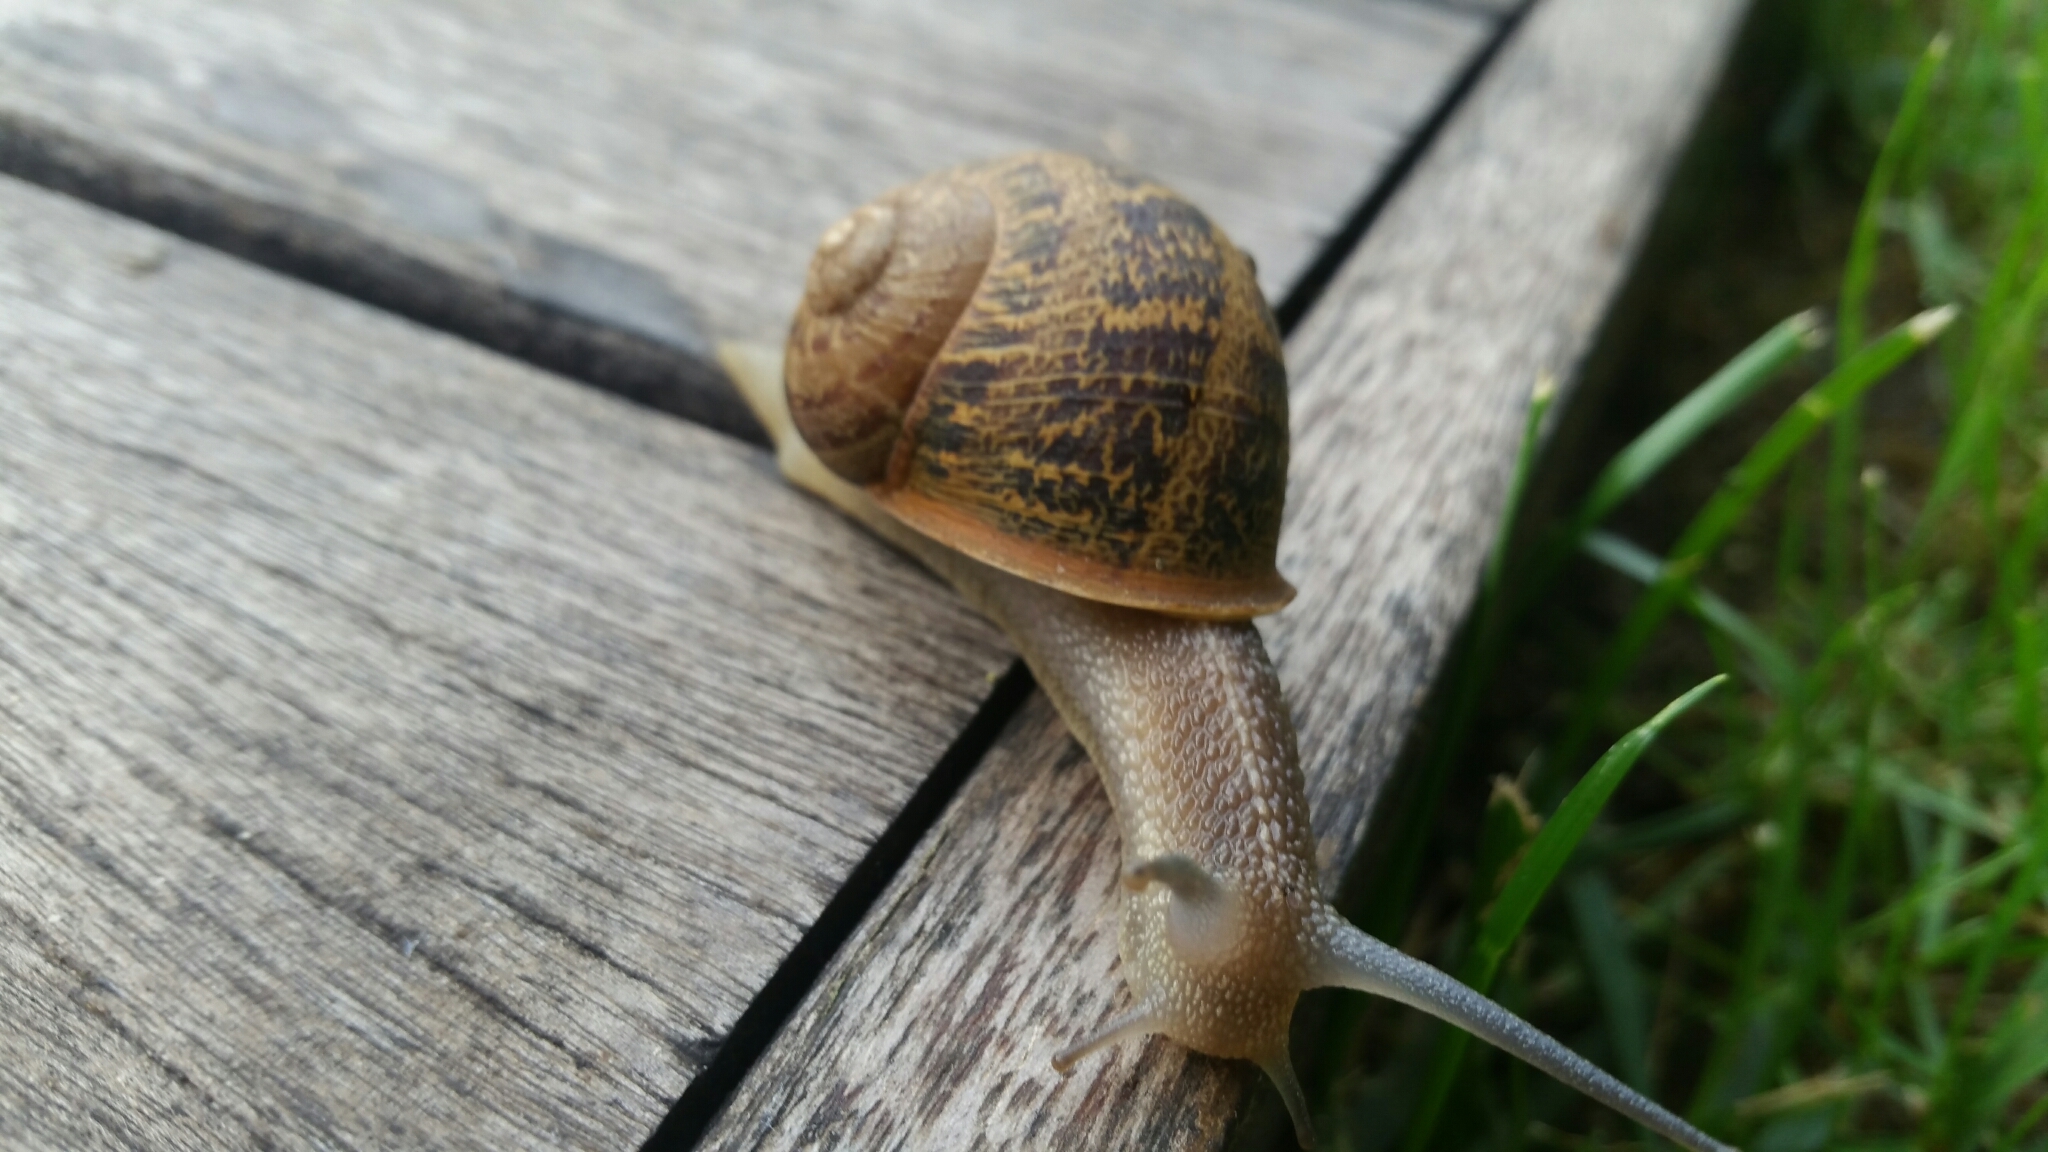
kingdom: Animalia
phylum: Mollusca
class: Gastropoda
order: Stylommatophora
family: Helicidae
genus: Cornu
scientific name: Cornu aspersum
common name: Brown garden snail
